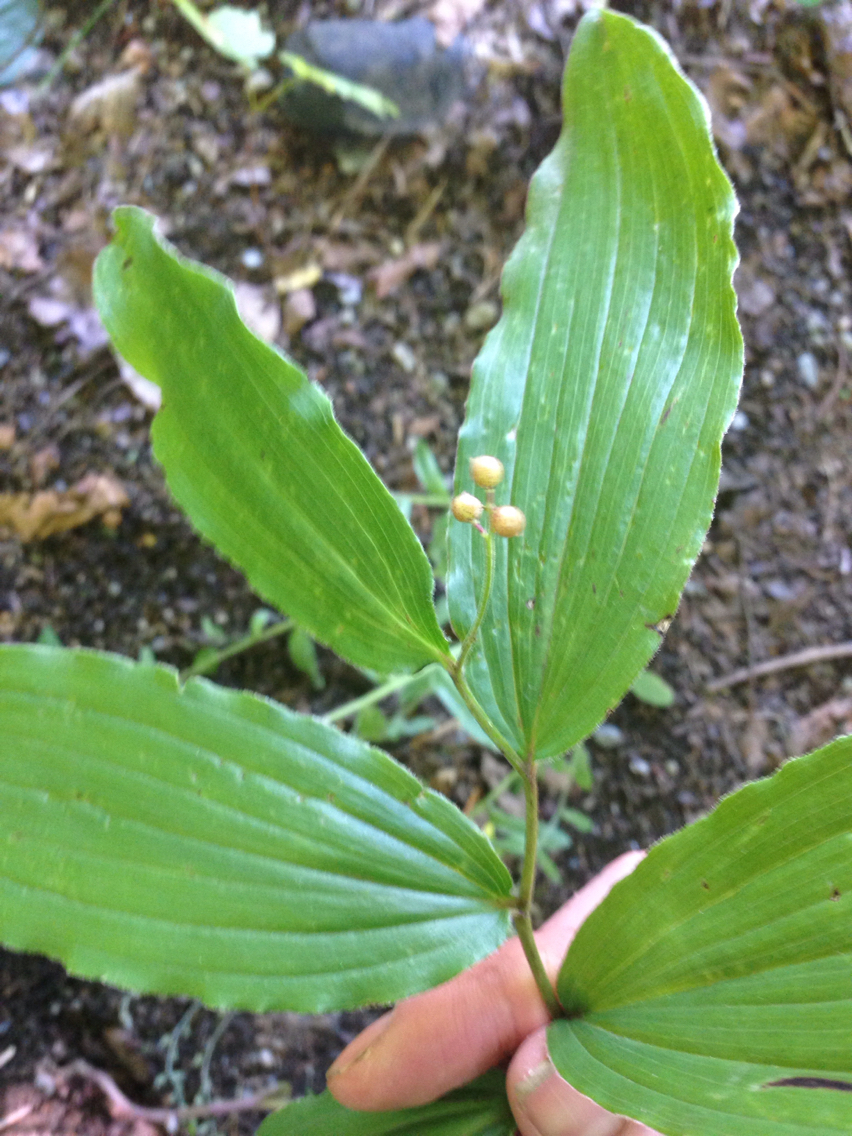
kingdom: Plantae
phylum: Tracheophyta
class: Liliopsida
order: Asparagales
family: Asparagaceae
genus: Maianthemum
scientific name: Maianthemum racemosum
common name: False spikenard
